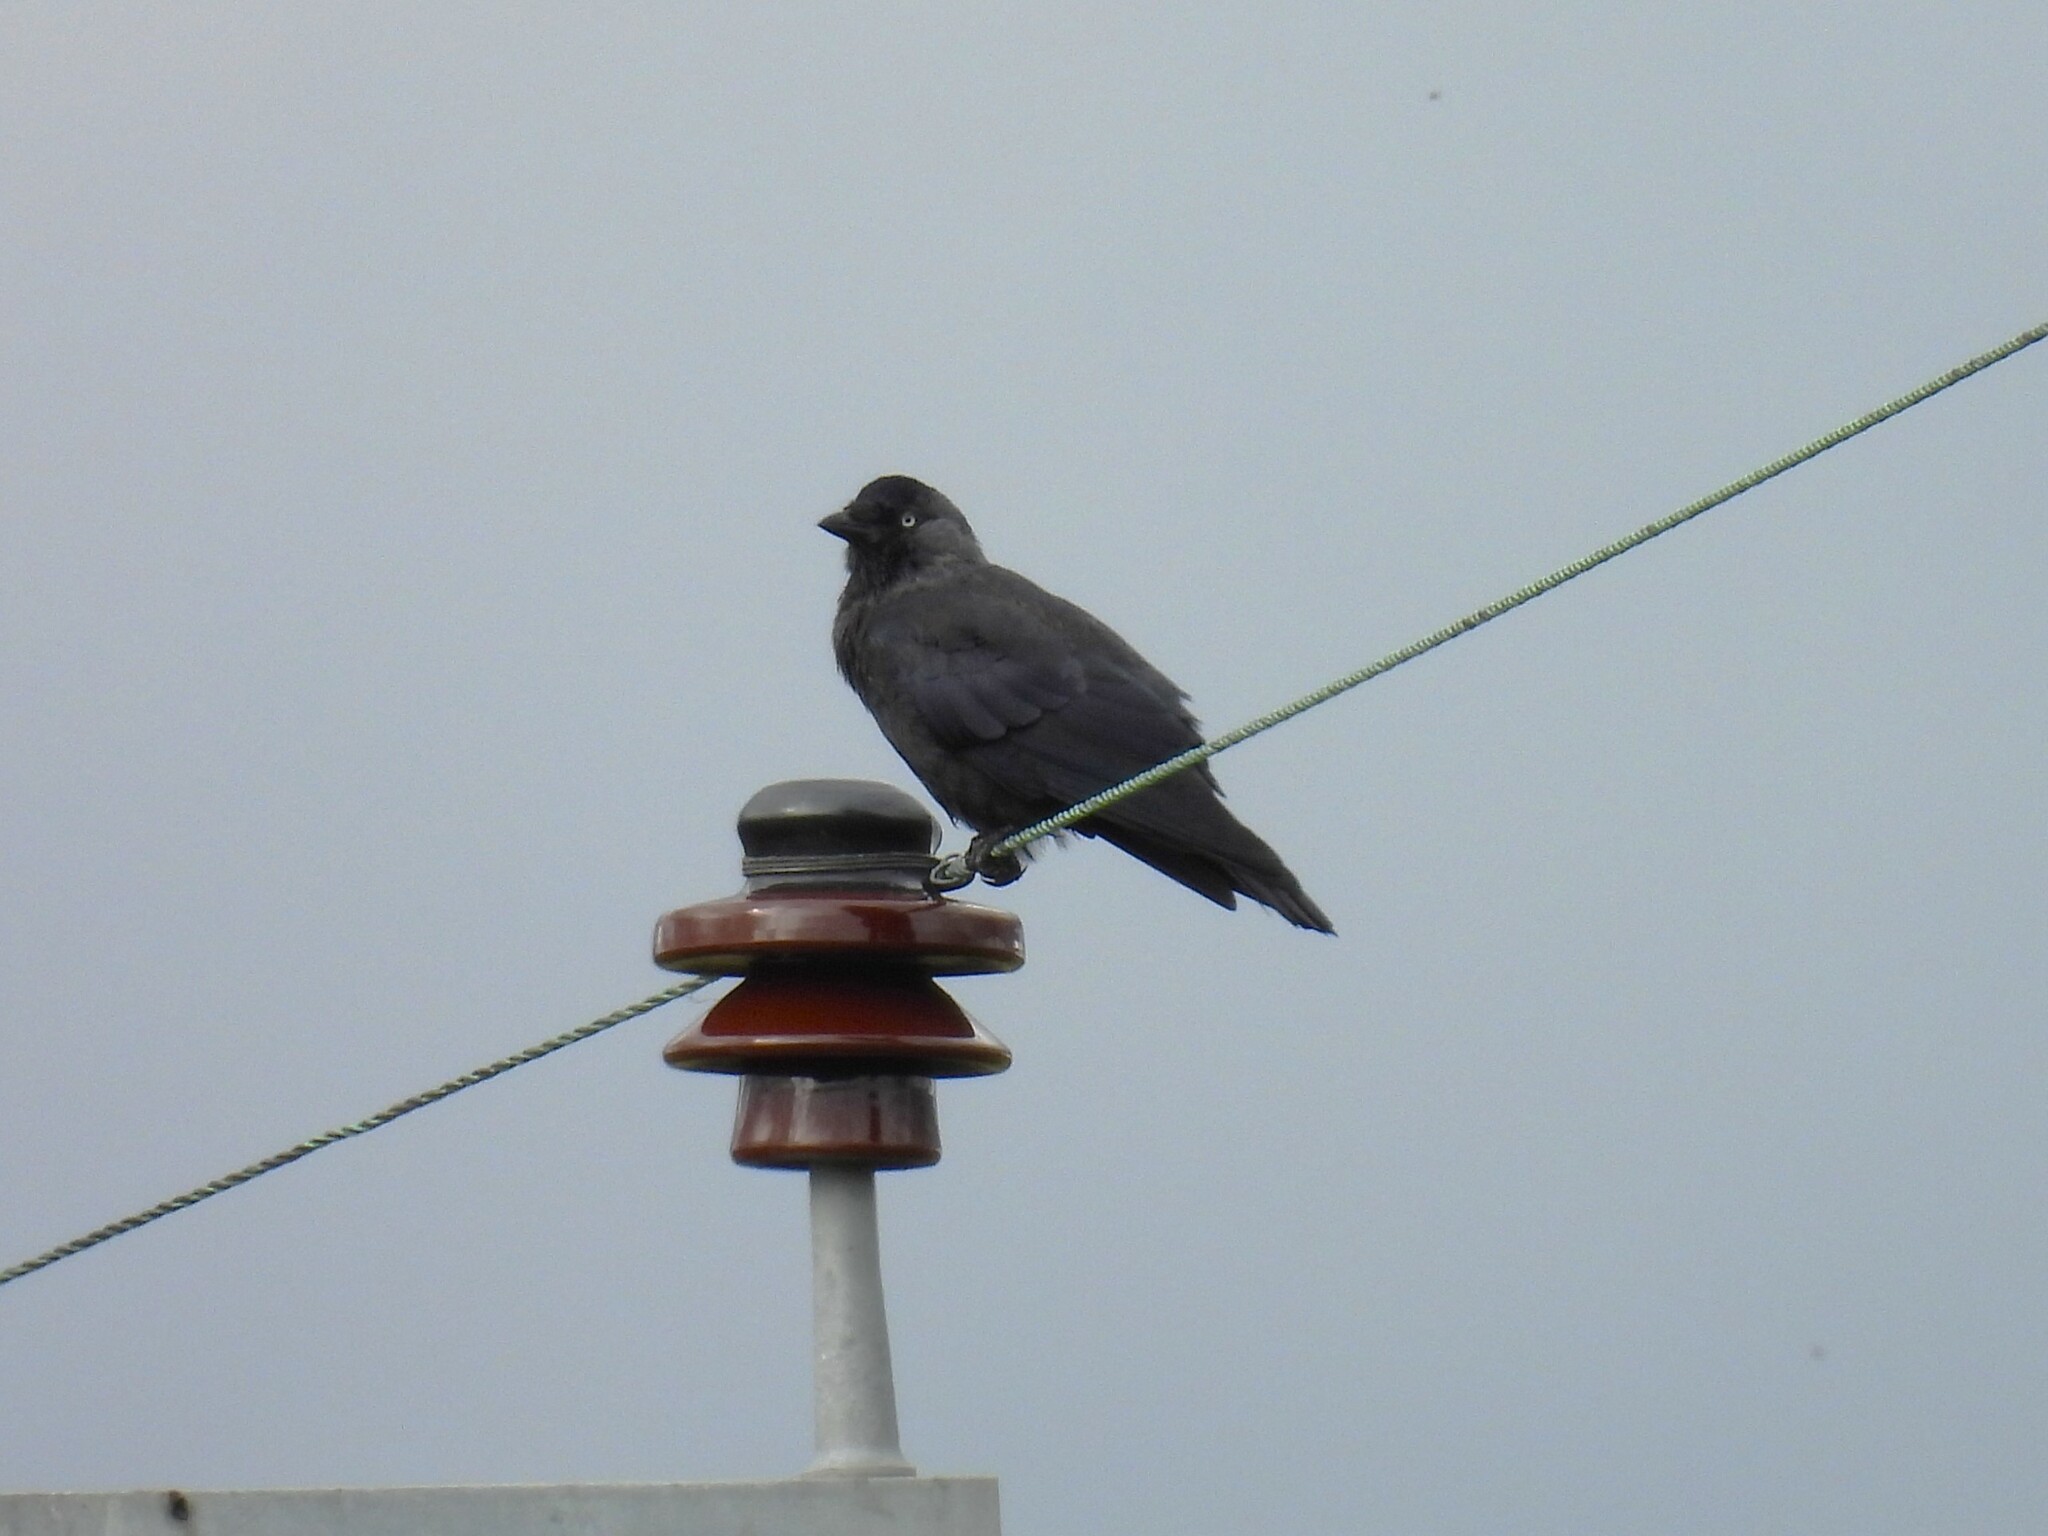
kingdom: Animalia
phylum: Chordata
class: Aves
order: Passeriformes
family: Corvidae
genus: Coloeus
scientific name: Coloeus monedula
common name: Western jackdaw
